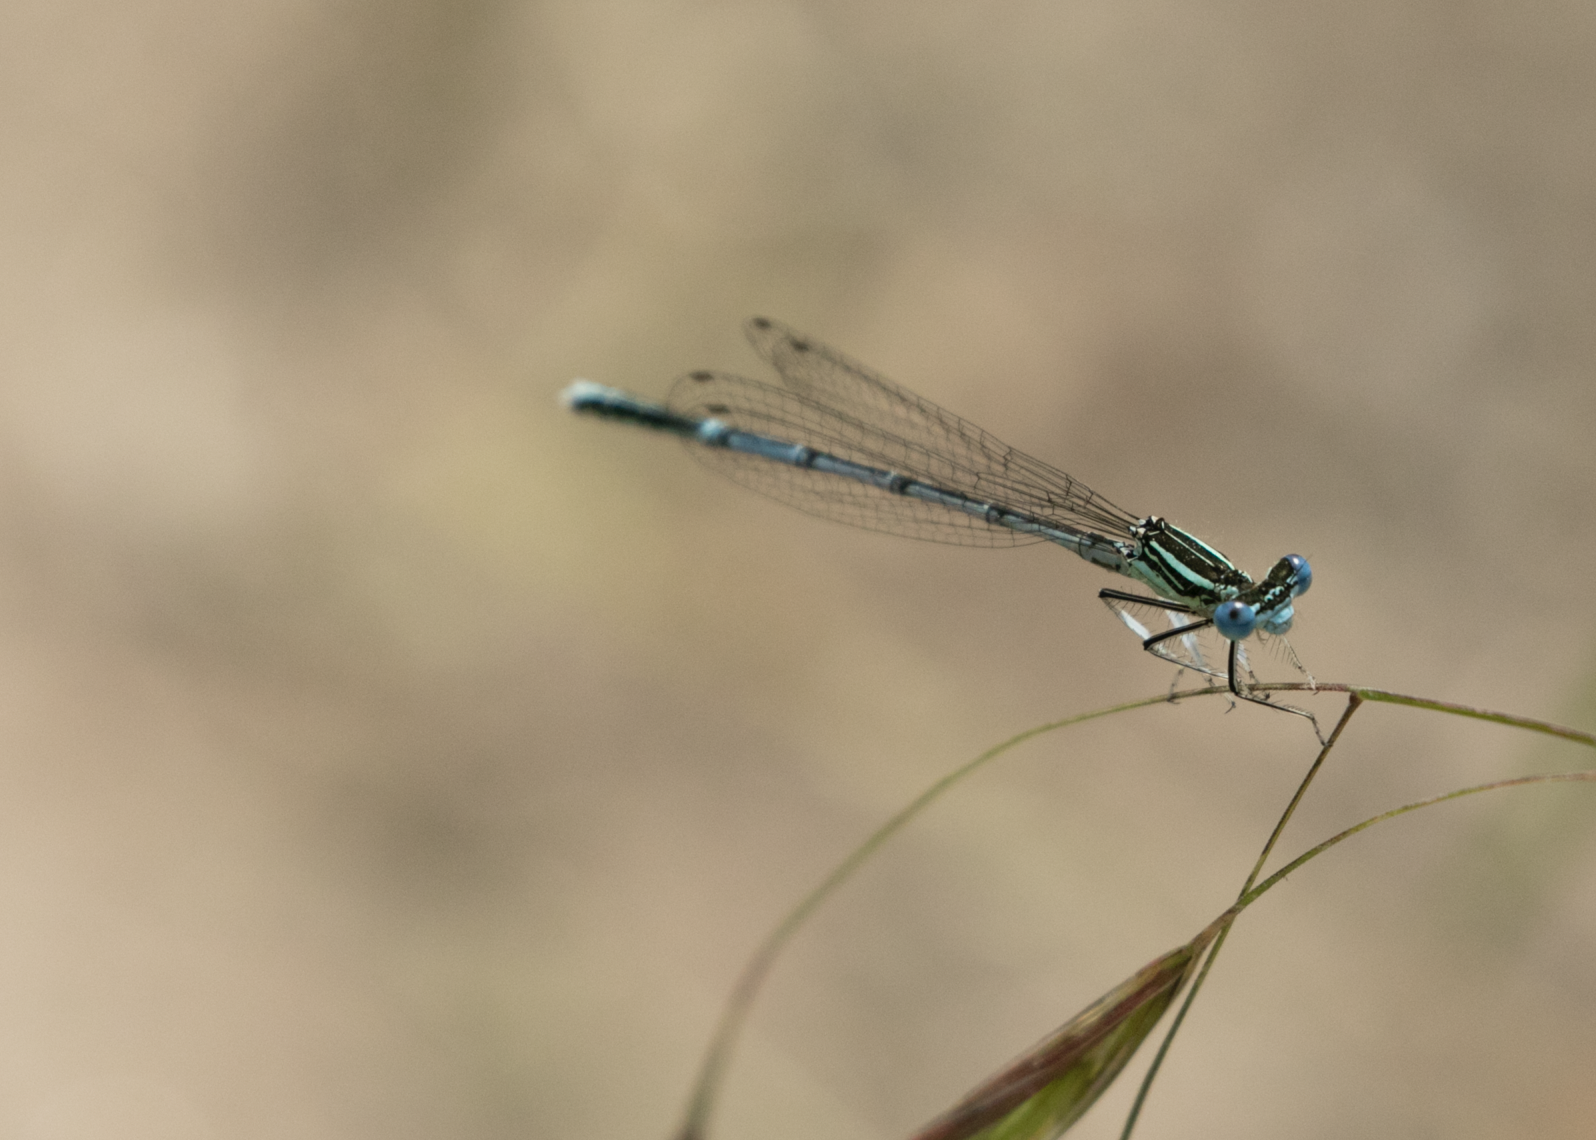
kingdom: Animalia
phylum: Arthropoda
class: Insecta
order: Odonata
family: Platycnemididae
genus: Platycnemis
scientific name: Platycnemis pennipes
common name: White-legged damselfly
